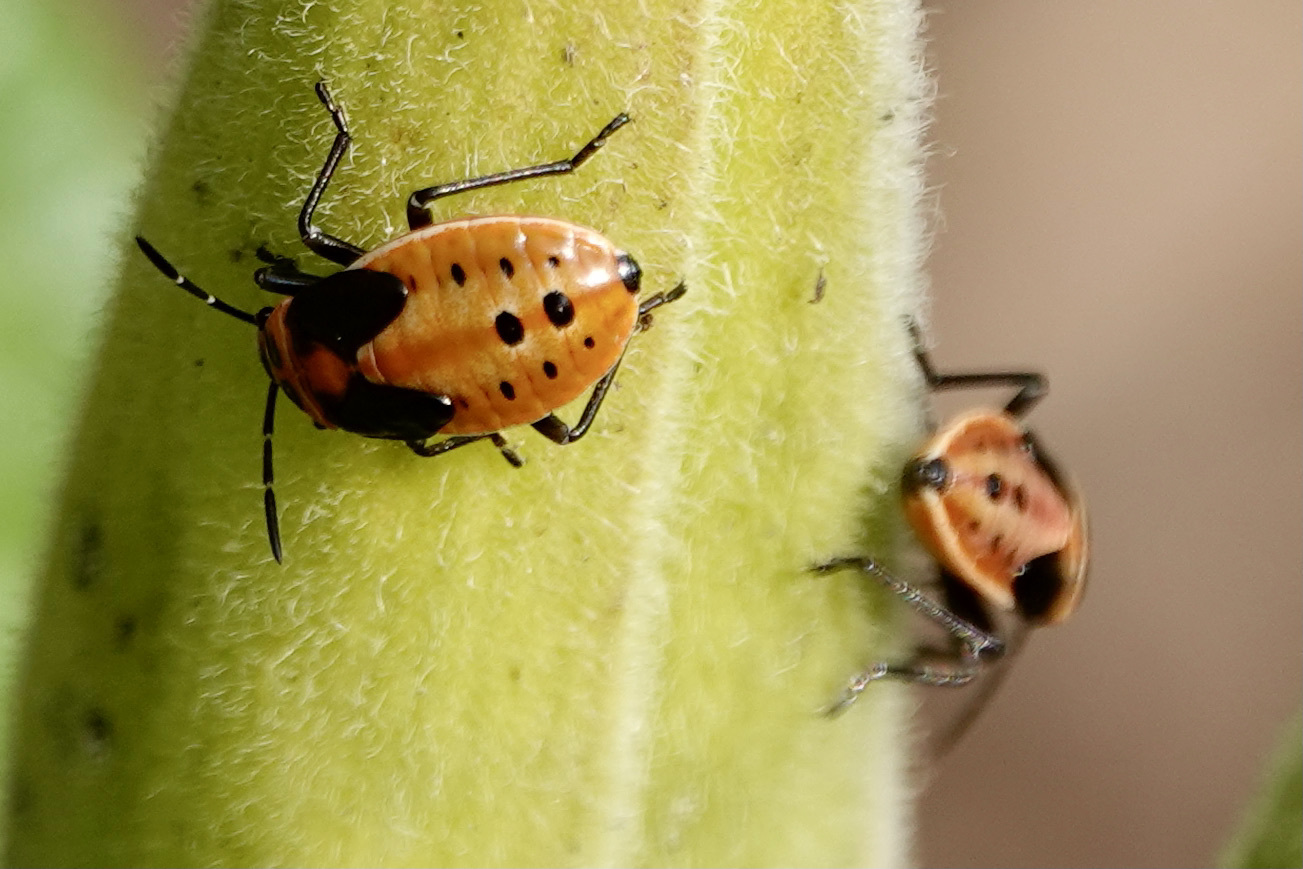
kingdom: Animalia
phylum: Arthropoda
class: Insecta
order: Hemiptera
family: Lygaeidae
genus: Lygaeus
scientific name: Lygaeus kalmii
